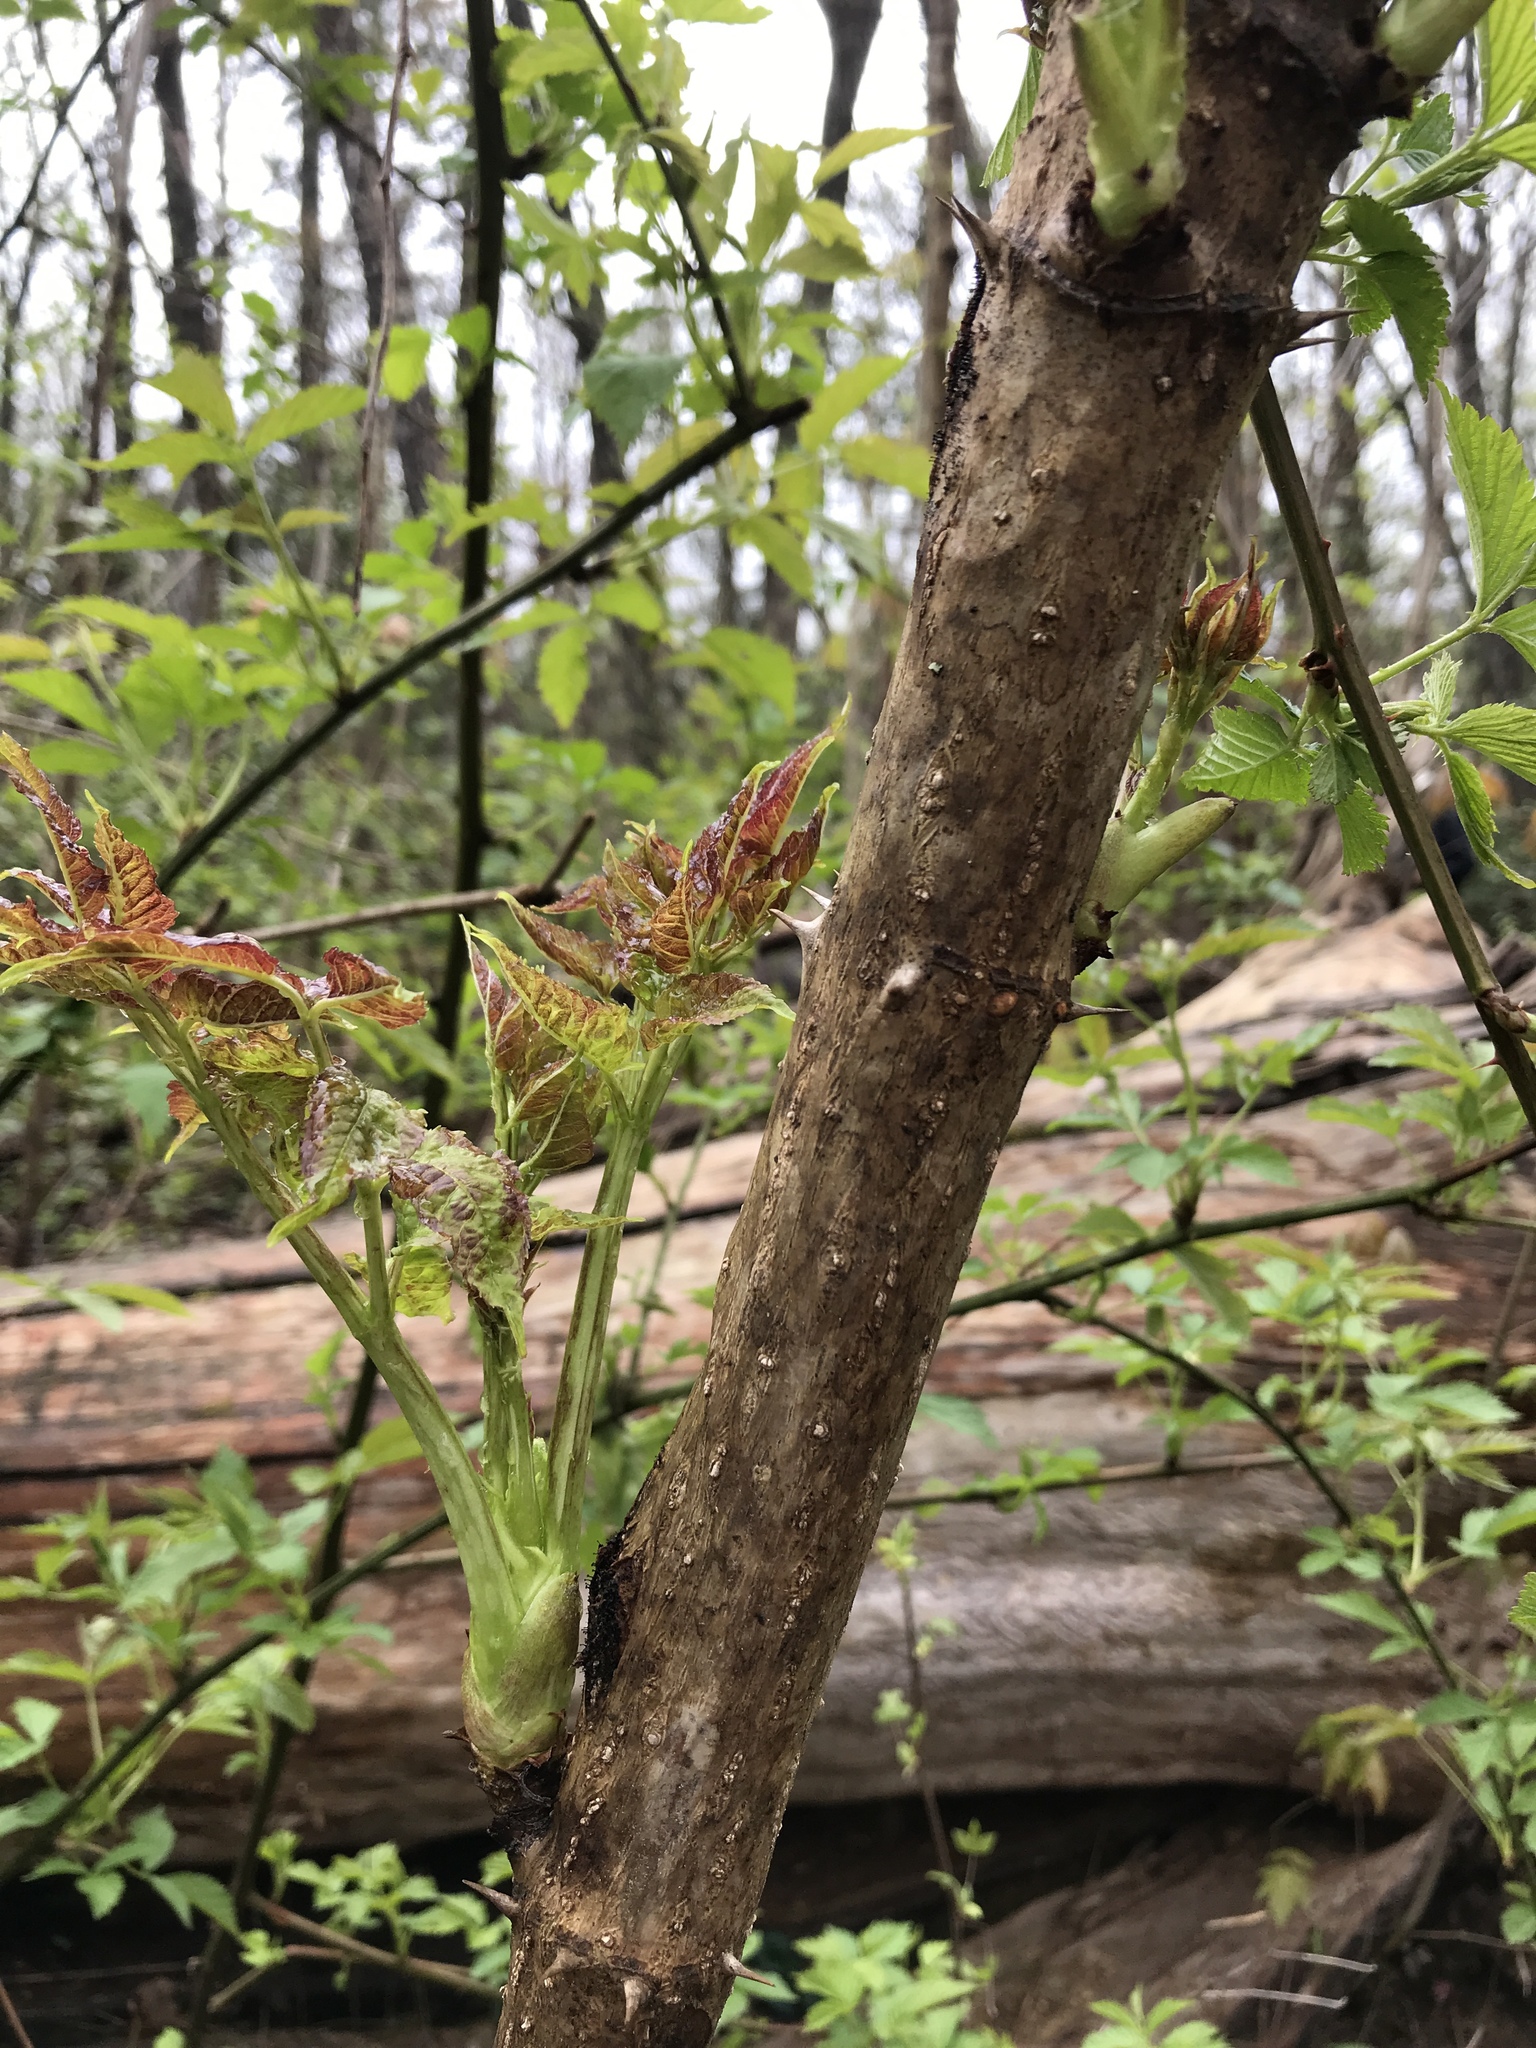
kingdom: Plantae
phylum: Tracheophyta
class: Magnoliopsida
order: Apiales
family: Araliaceae
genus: Aralia
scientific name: Aralia spinosa
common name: Hercules'-club
